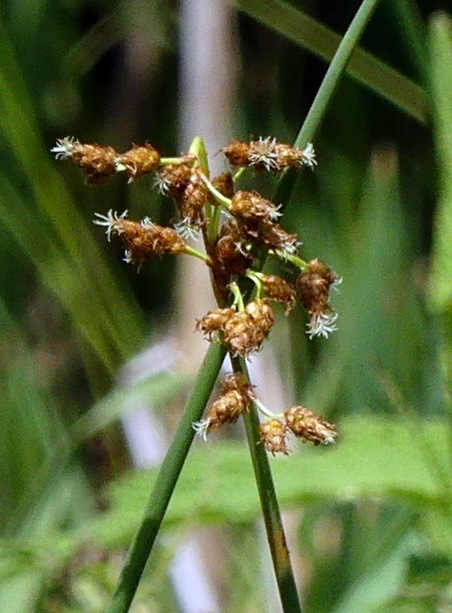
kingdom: Plantae
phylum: Tracheophyta
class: Liliopsida
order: Poales
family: Cyperaceae
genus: Schoenoplectus
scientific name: Schoenoplectus tabernaemontani
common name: Grey club-rush
